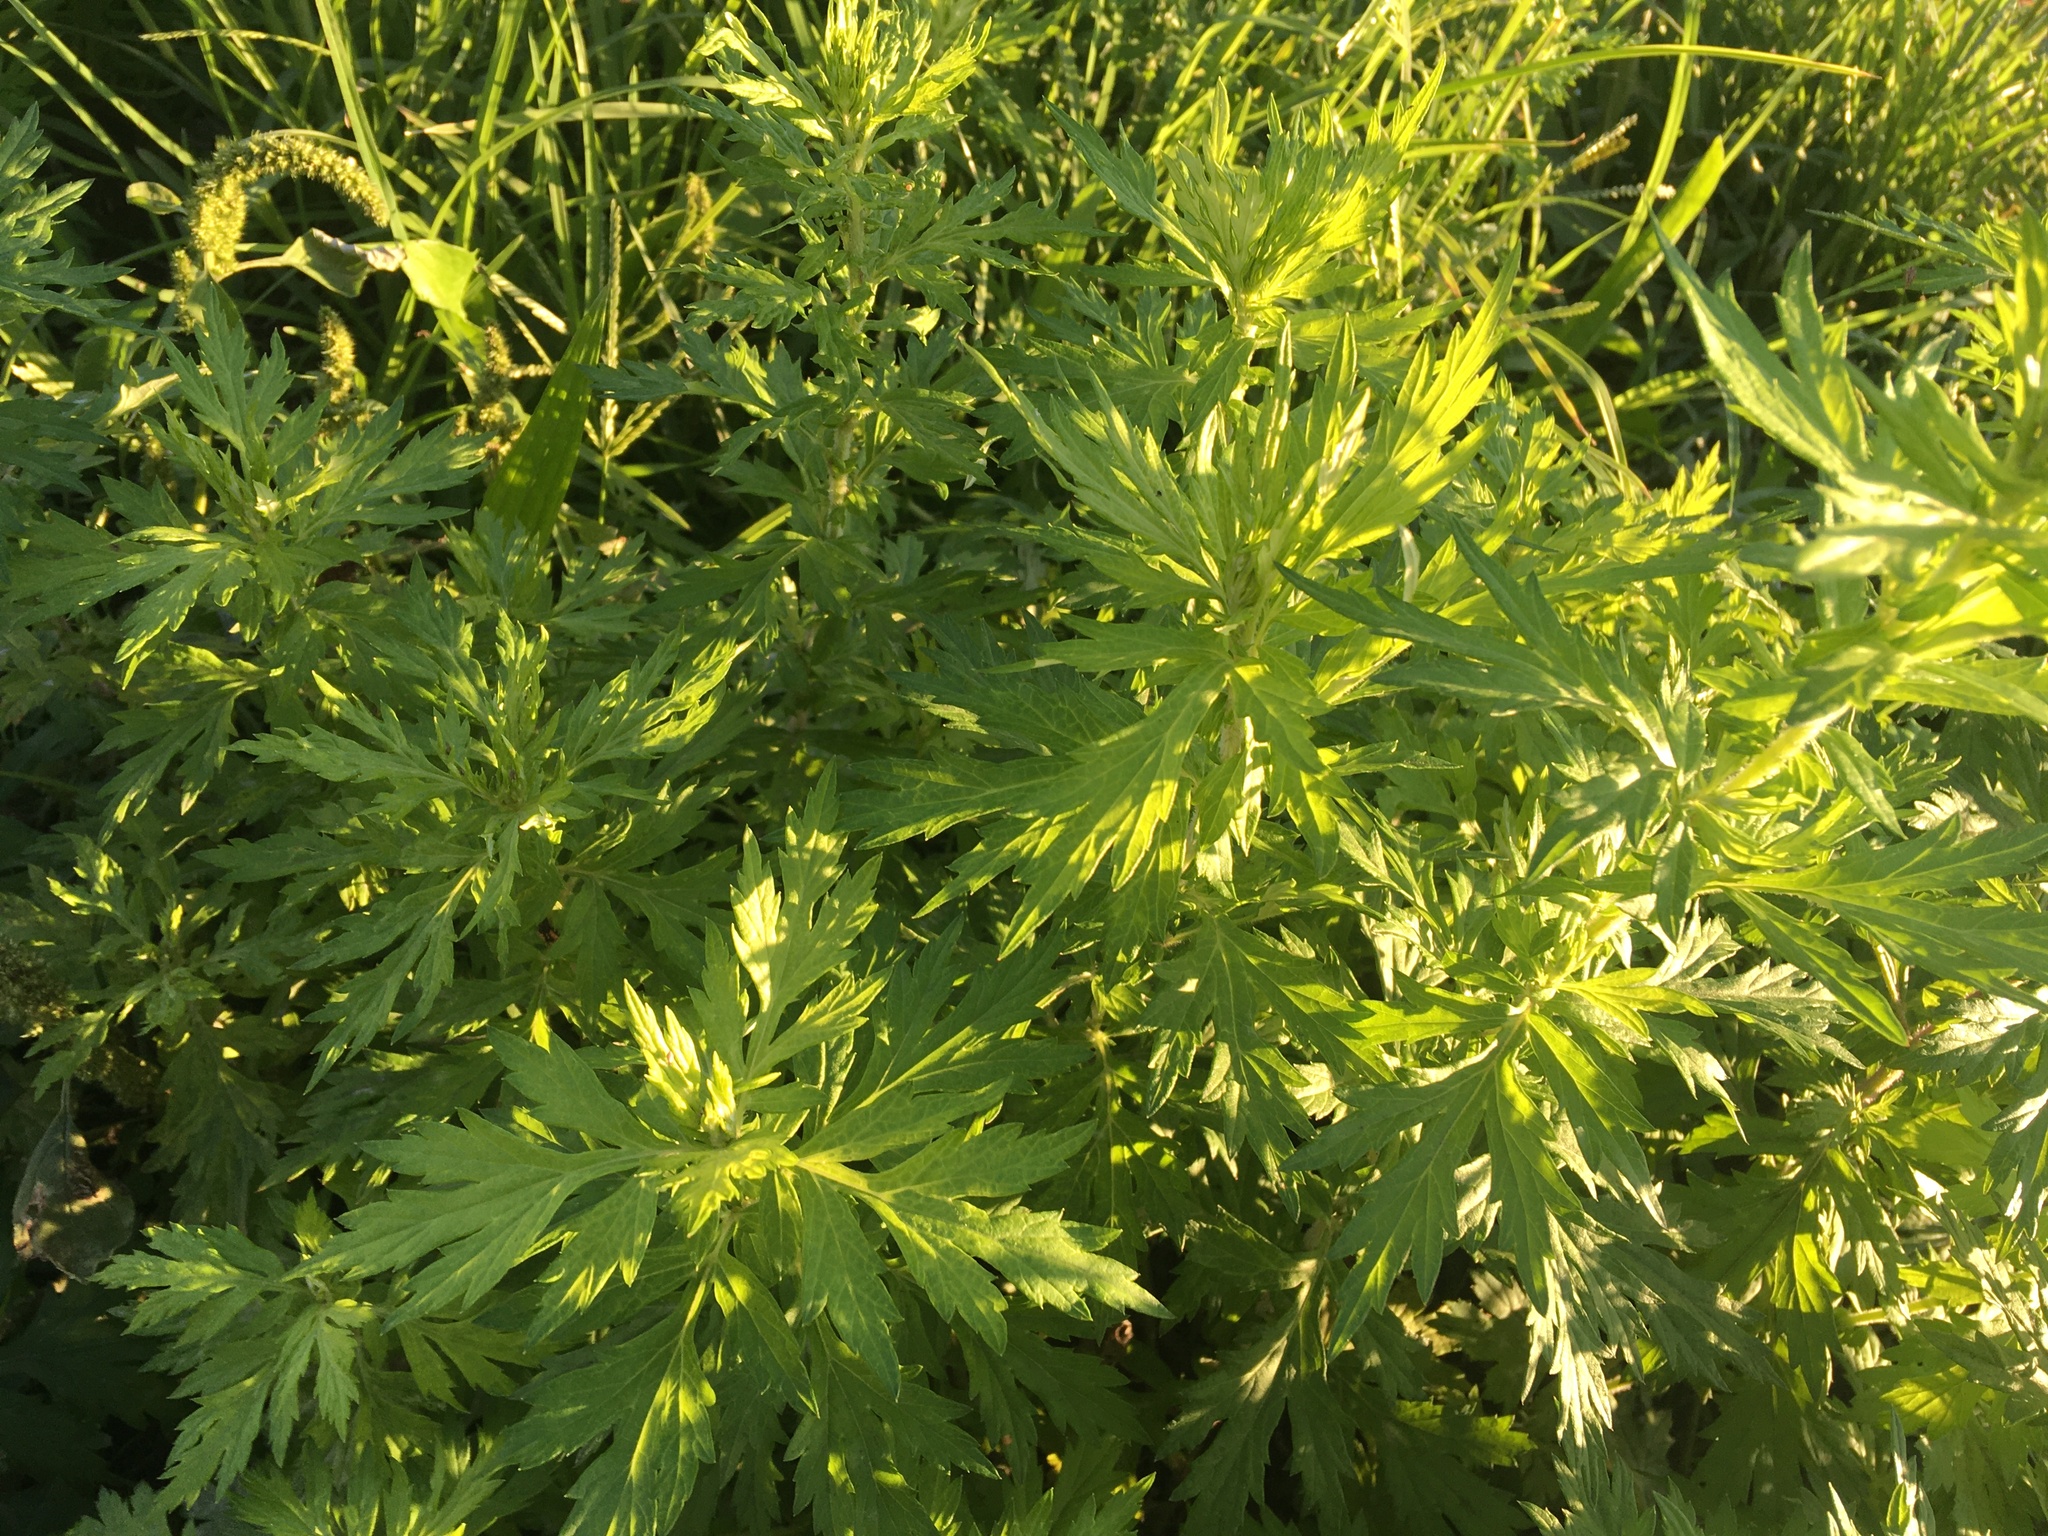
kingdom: Plantae
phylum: Tracheophyta
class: Magnoliopsida
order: Asterales
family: Asteraceae
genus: Artemisia
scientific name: Artemisia vulgaris
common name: Mugwort
